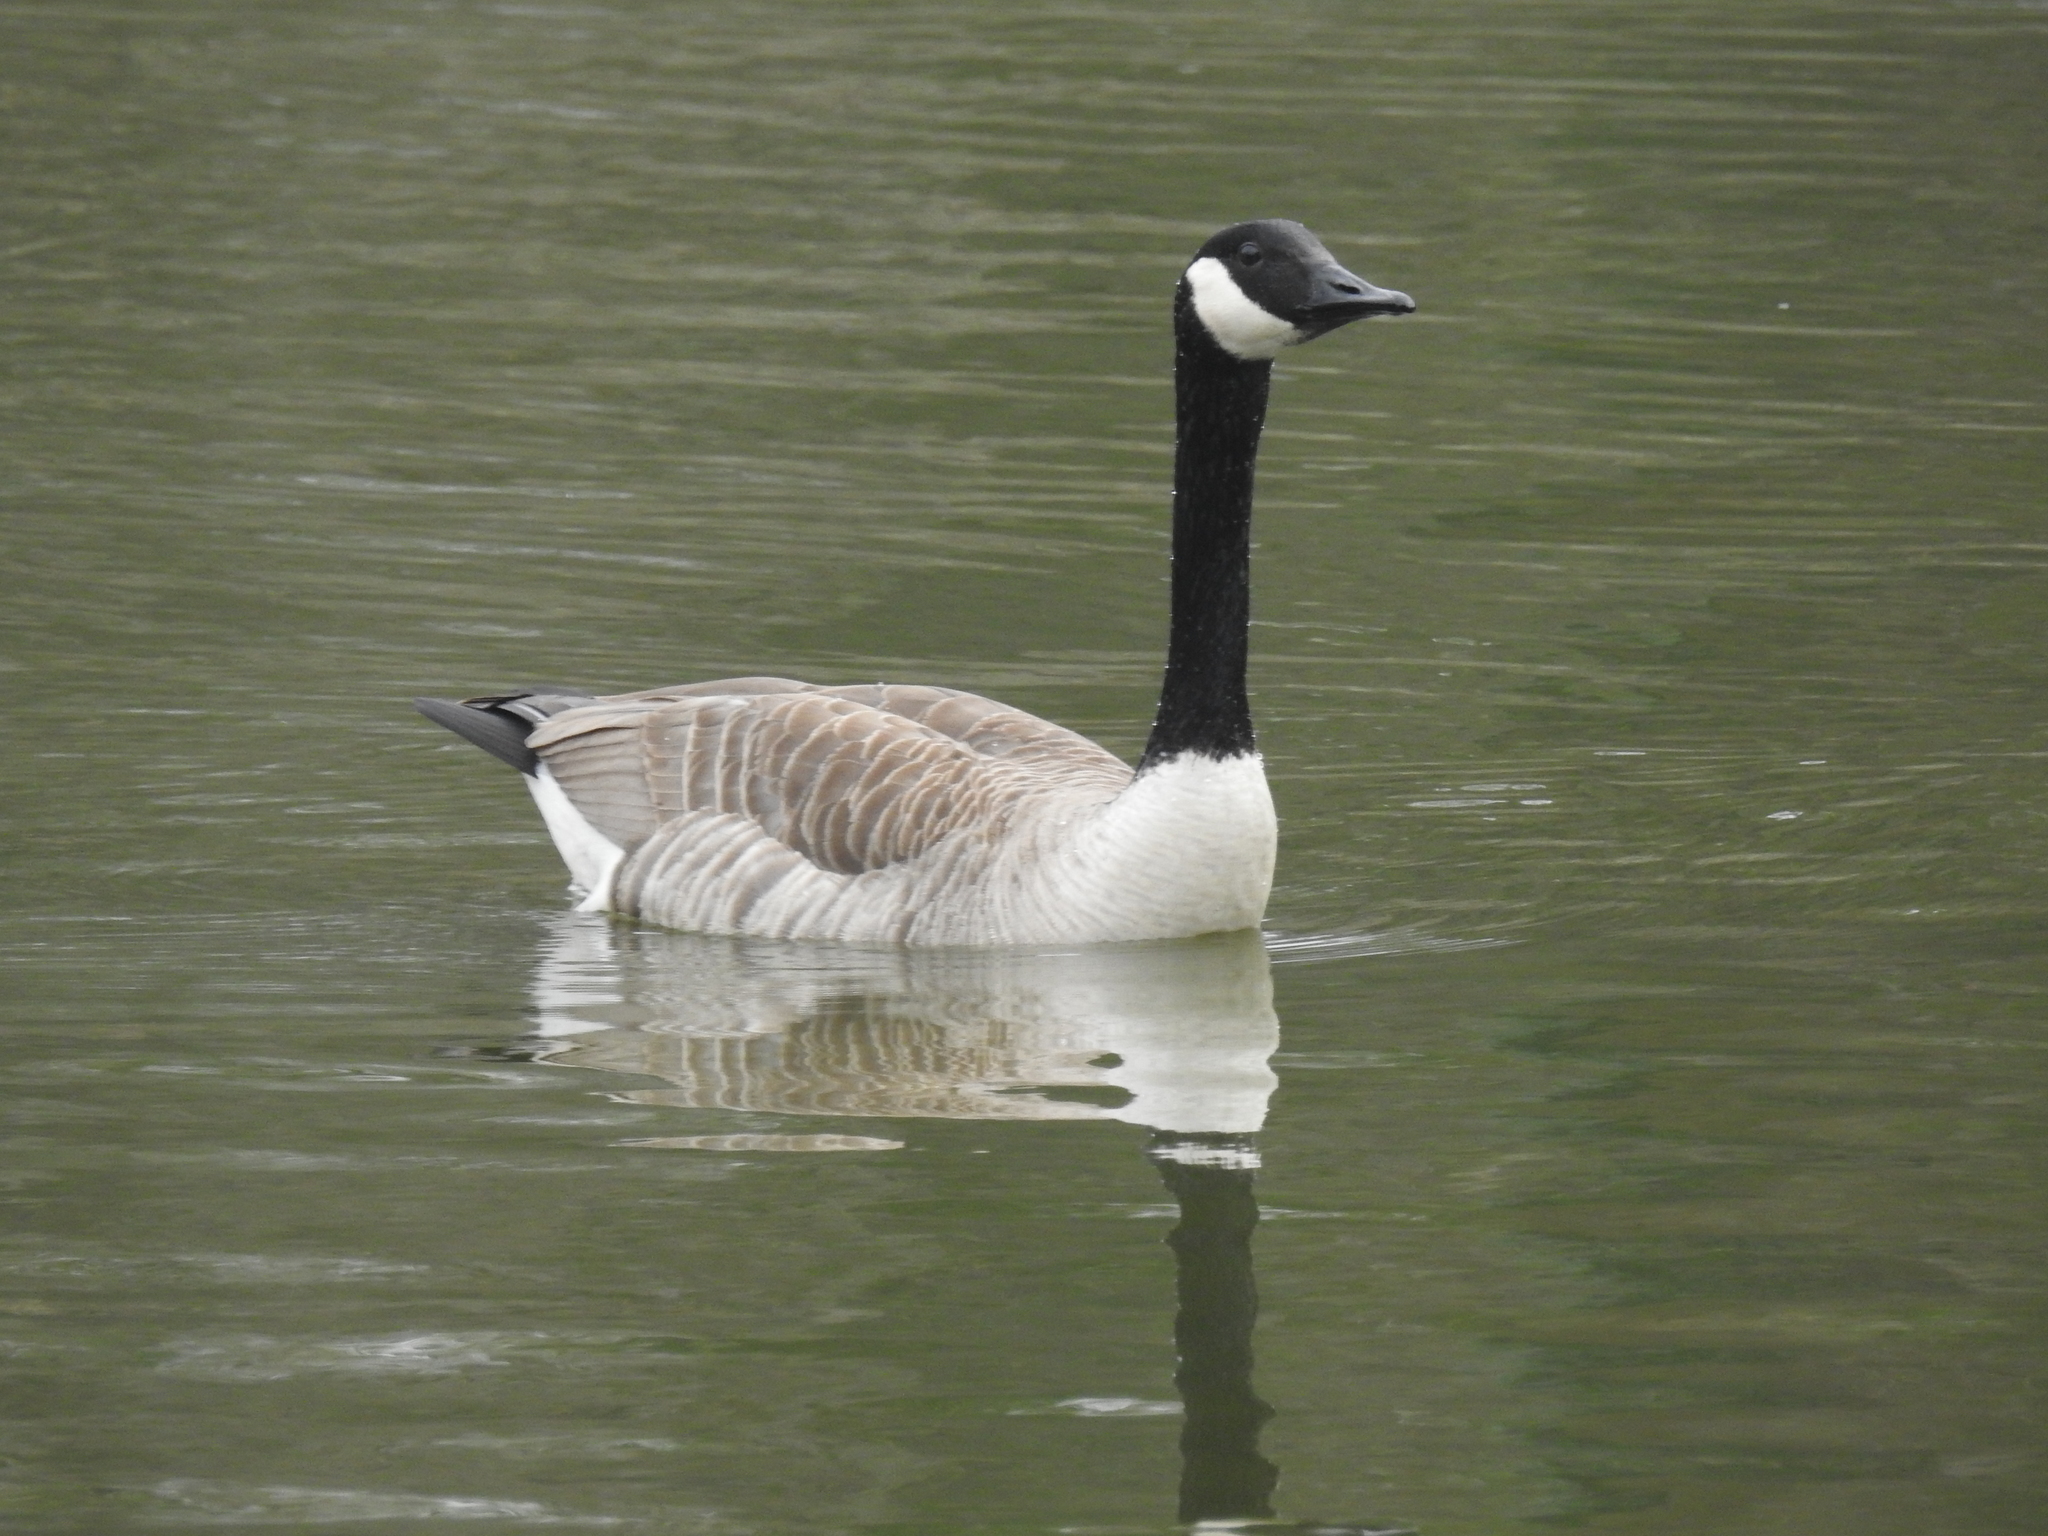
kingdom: Animalia
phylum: Chordata
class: Aves
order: Anseriformes
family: Anatidae
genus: Branta
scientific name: Branta canadensis
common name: Canada goose
